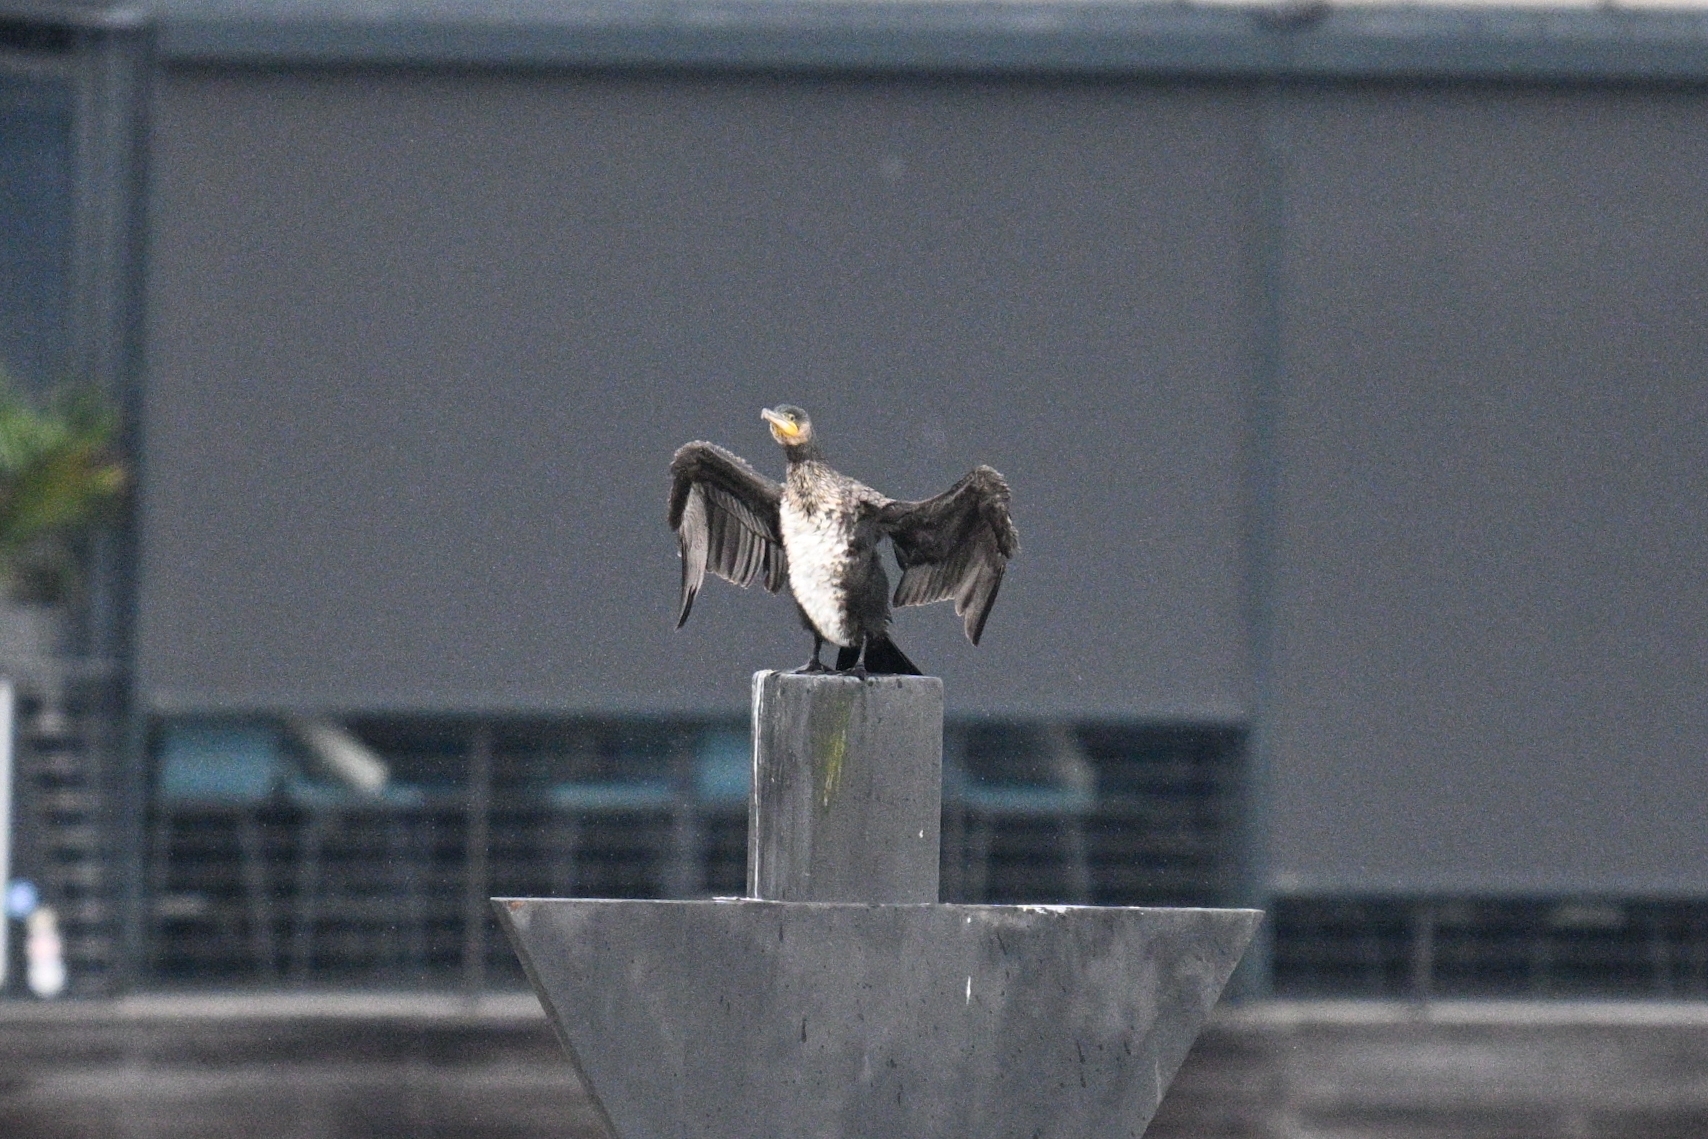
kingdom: Animalia
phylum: Chordata
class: Aves
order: Suliformes
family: Phalacrocoracidae
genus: Phalacrocorax
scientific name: Phalacrocorax carbo
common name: Great cormorant
